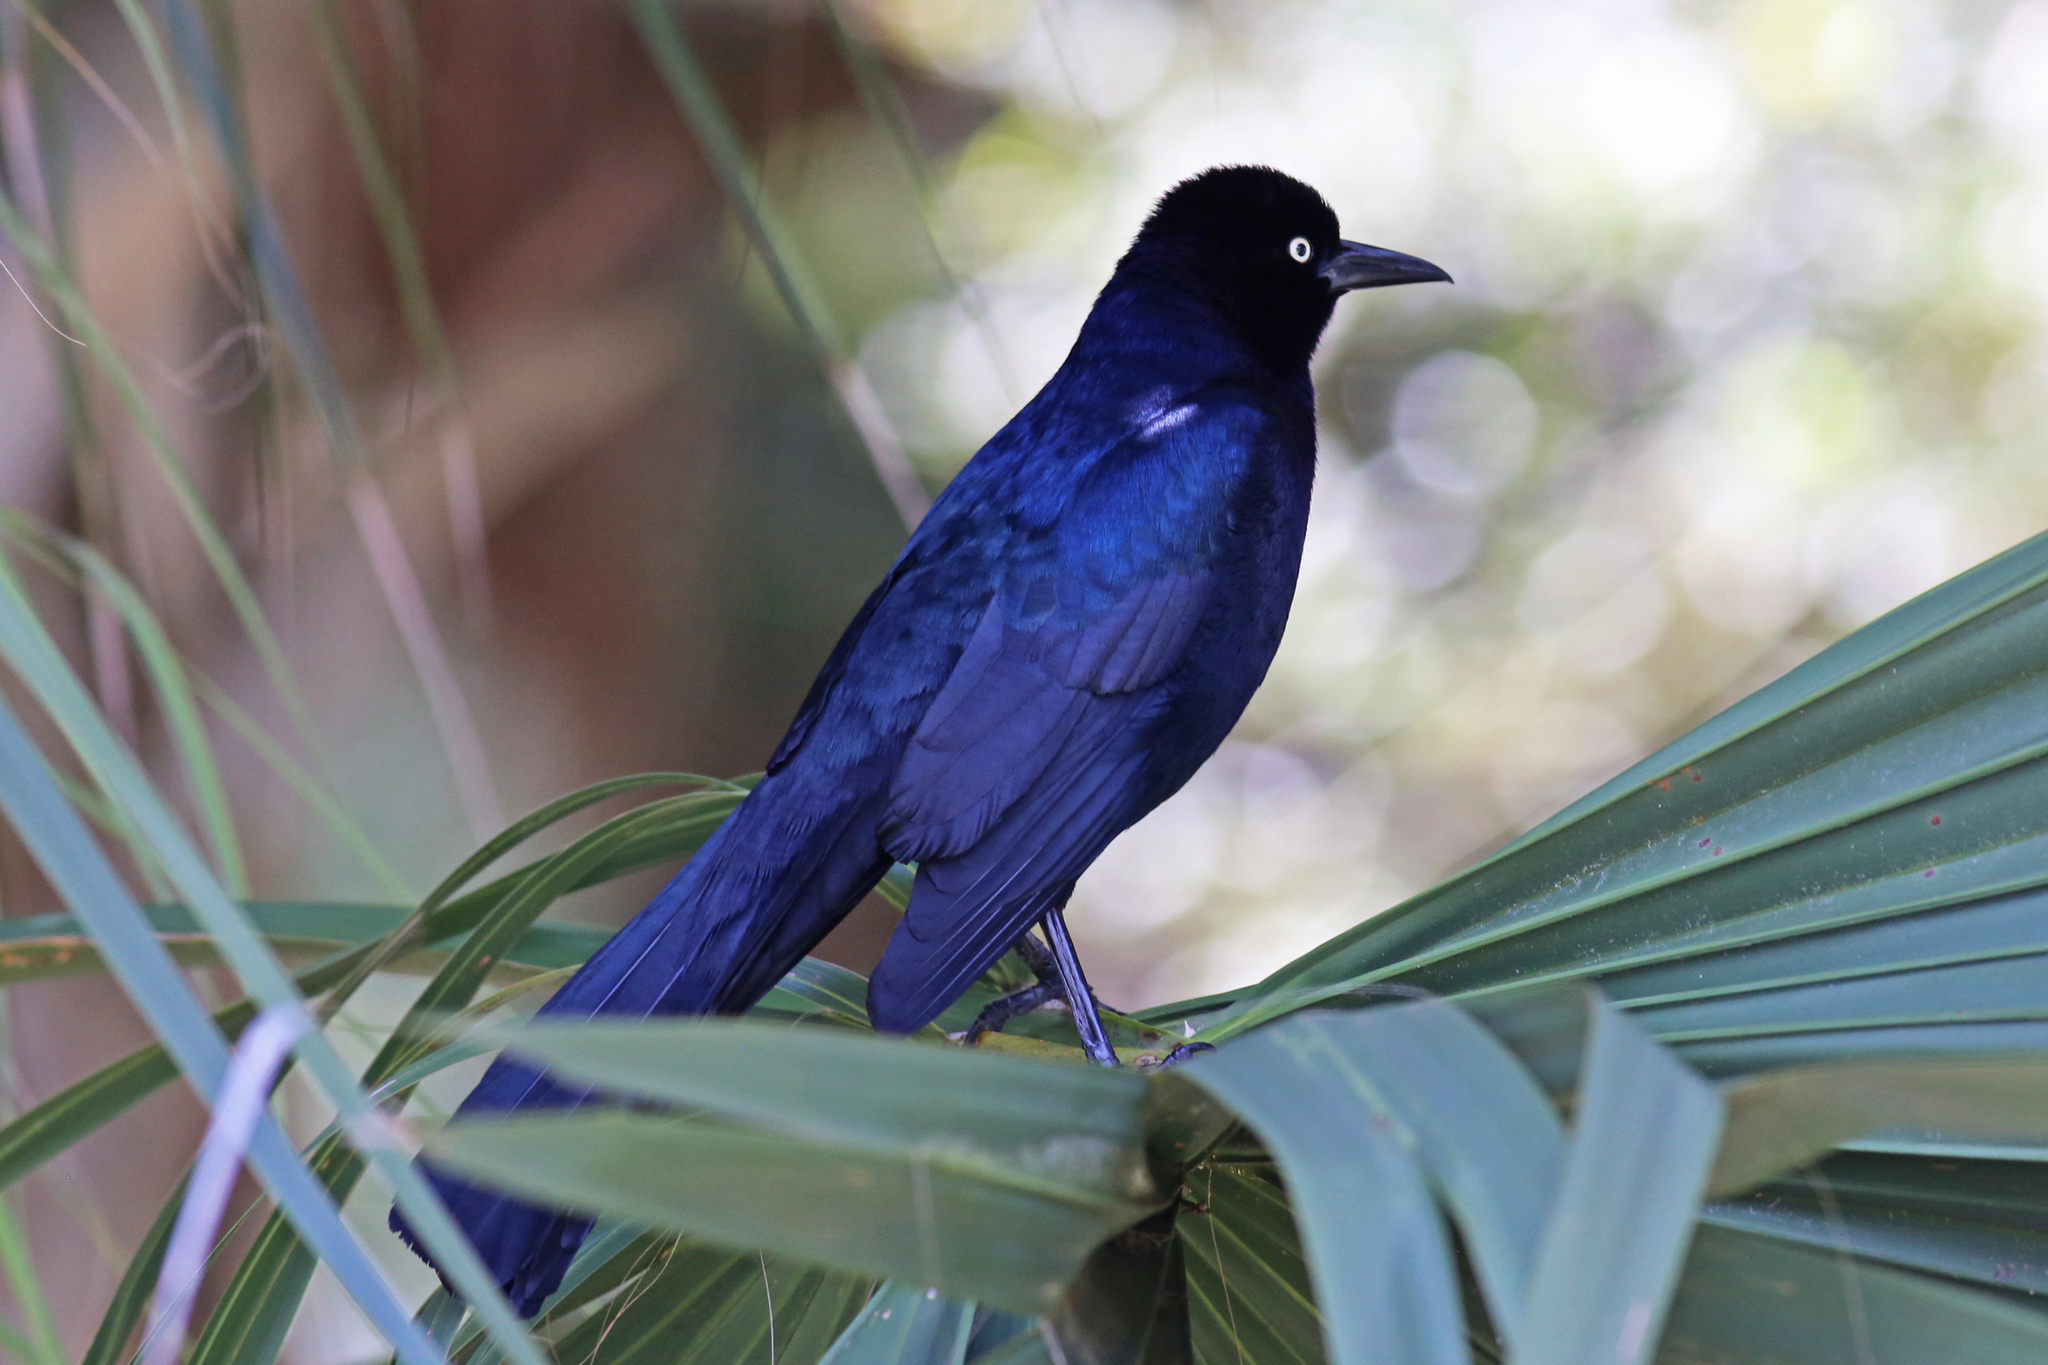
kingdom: Animalia
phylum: Chordata
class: Aves
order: Passeriformes
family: Icteridae
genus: Quiscalus
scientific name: Quiscalus major
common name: Boat-tailed grackle
